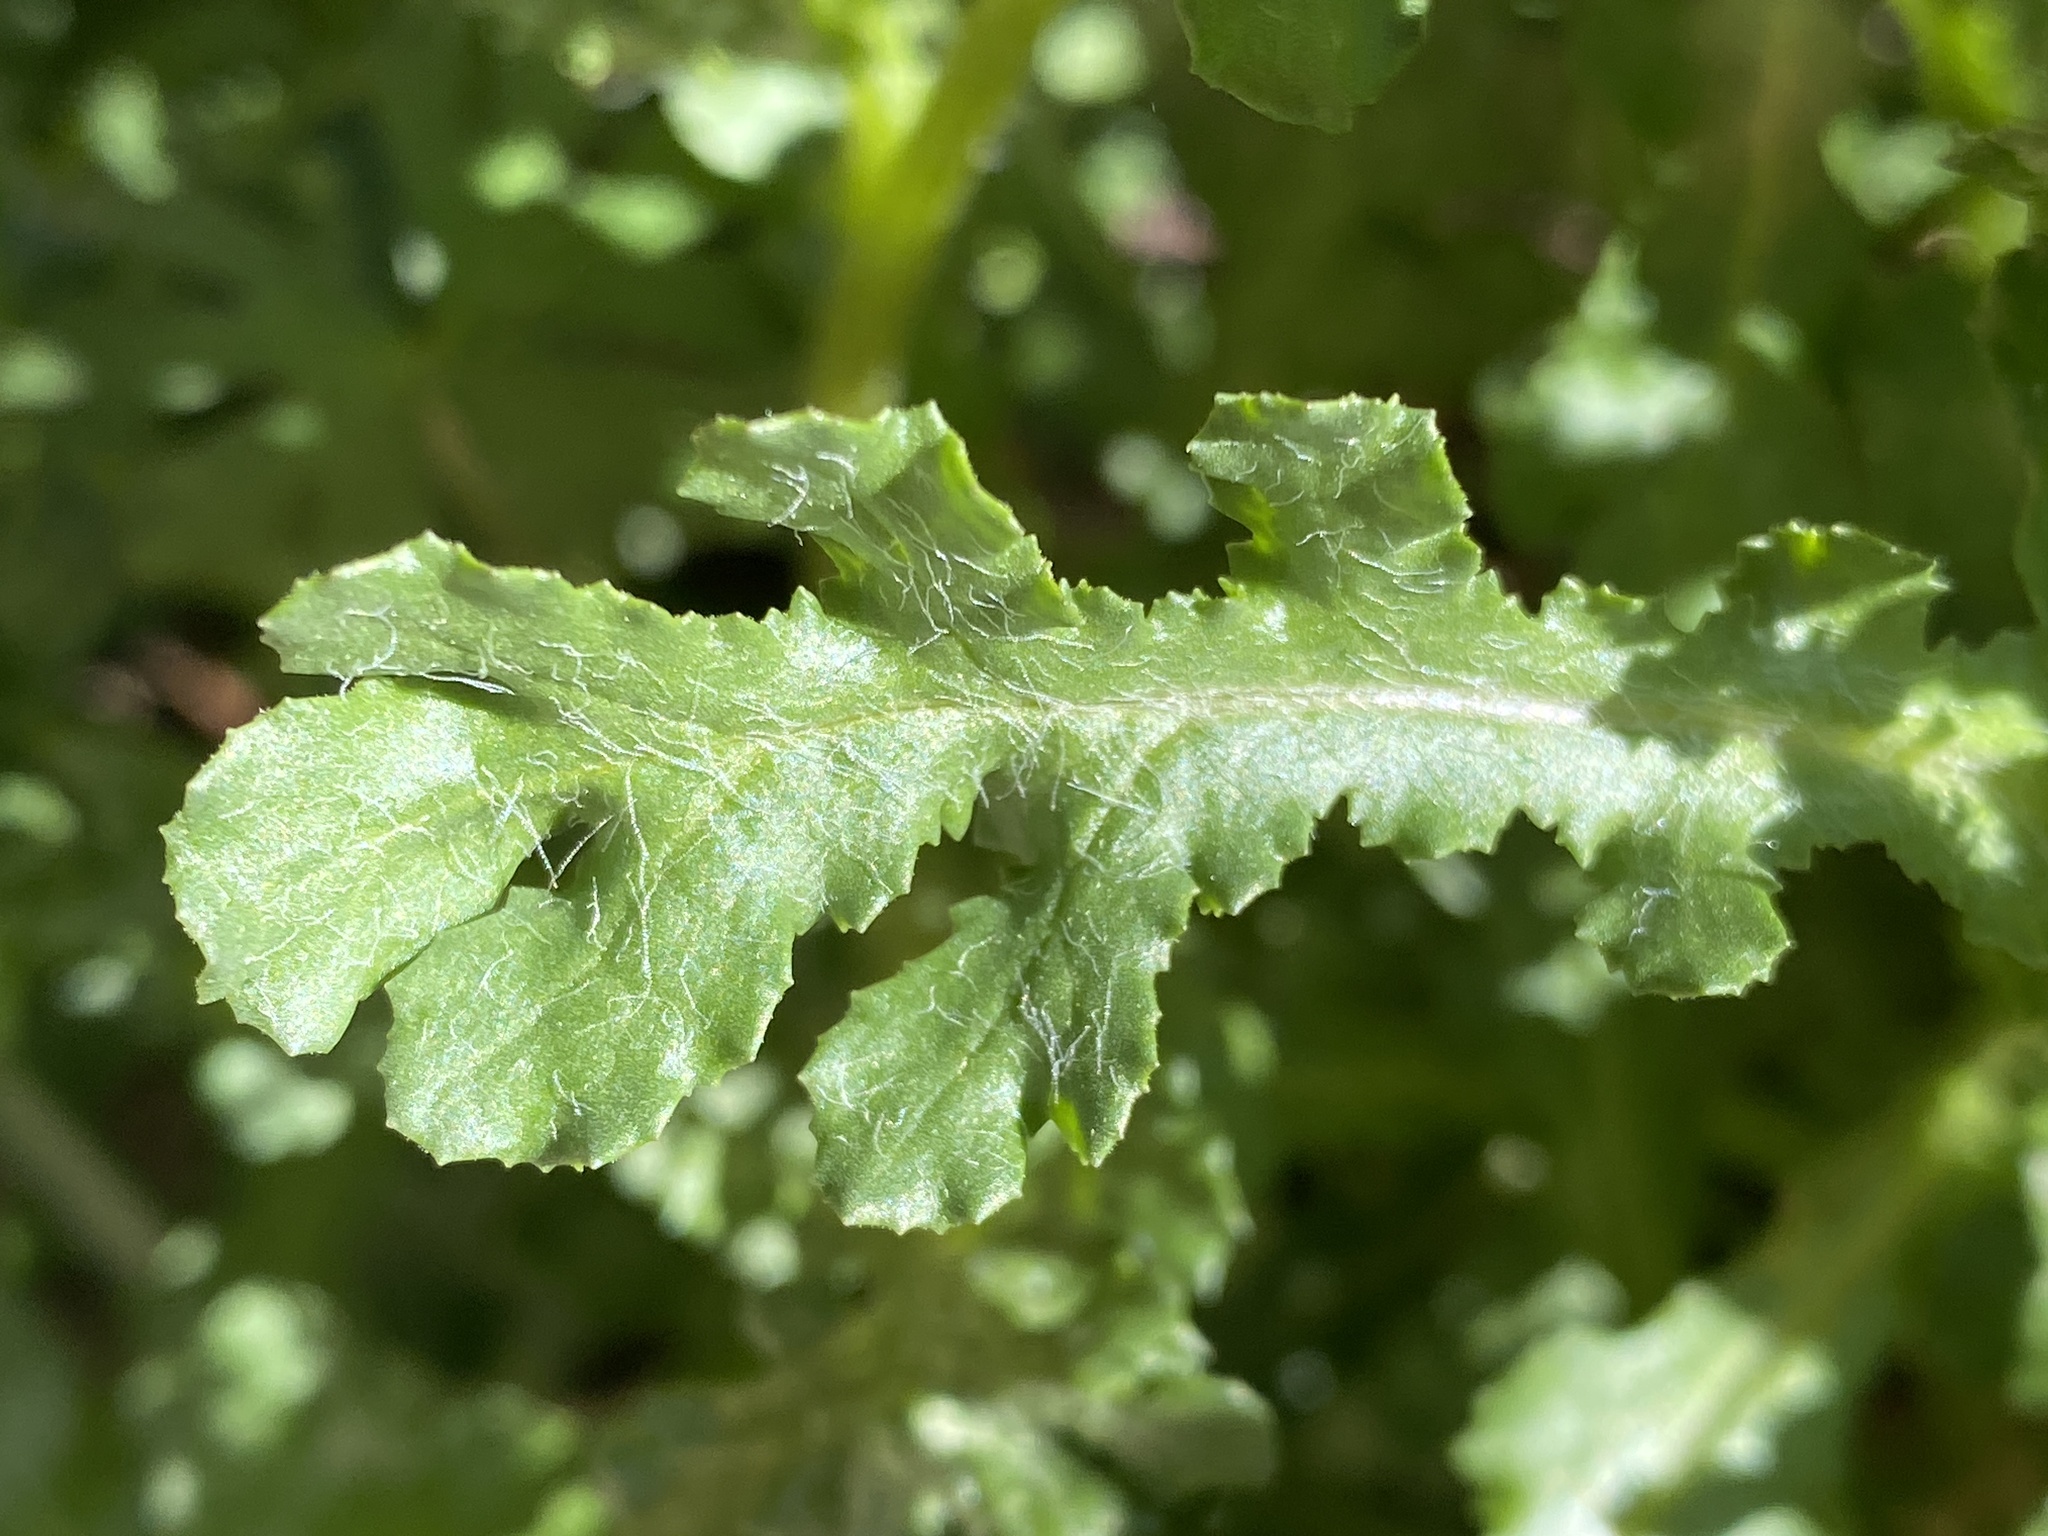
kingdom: Plantae
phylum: Tracheophyta
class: Magnoliopsida
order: Asterales
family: Asteraceae
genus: Senecio
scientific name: Senecio vulgaris
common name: Old-man-in-the-spring
